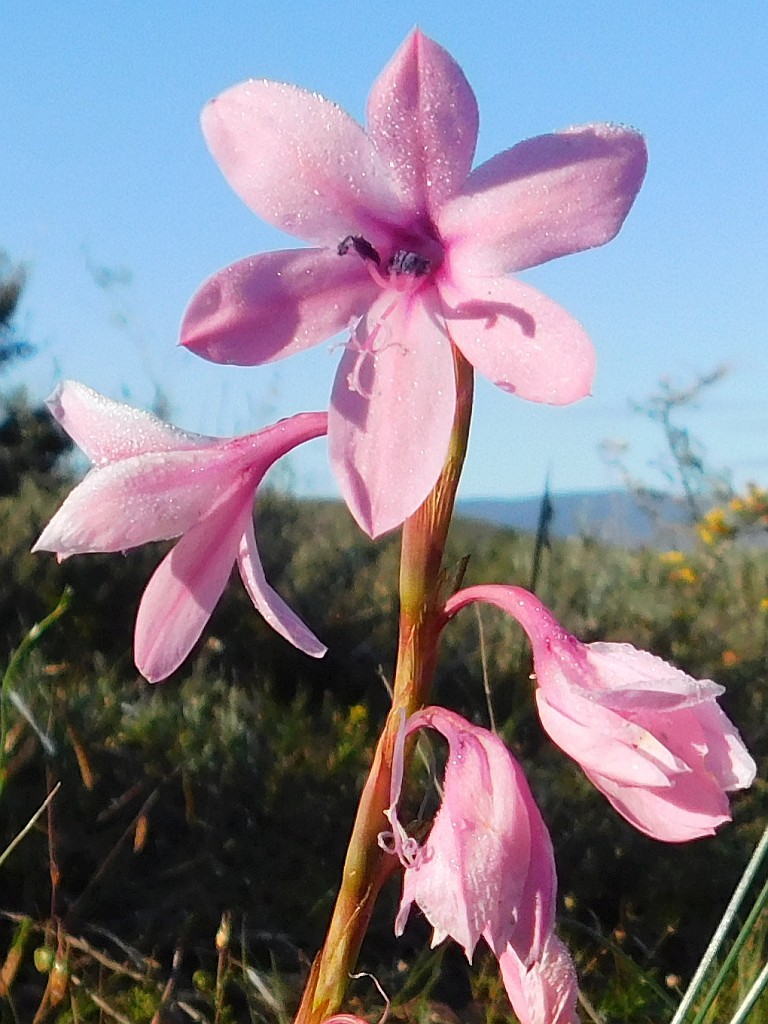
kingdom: Plantae
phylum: Tracheophyta
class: Liliopsida
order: Asparagales
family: Iridaceae
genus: Watsonia
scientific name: Watsonia laccata
